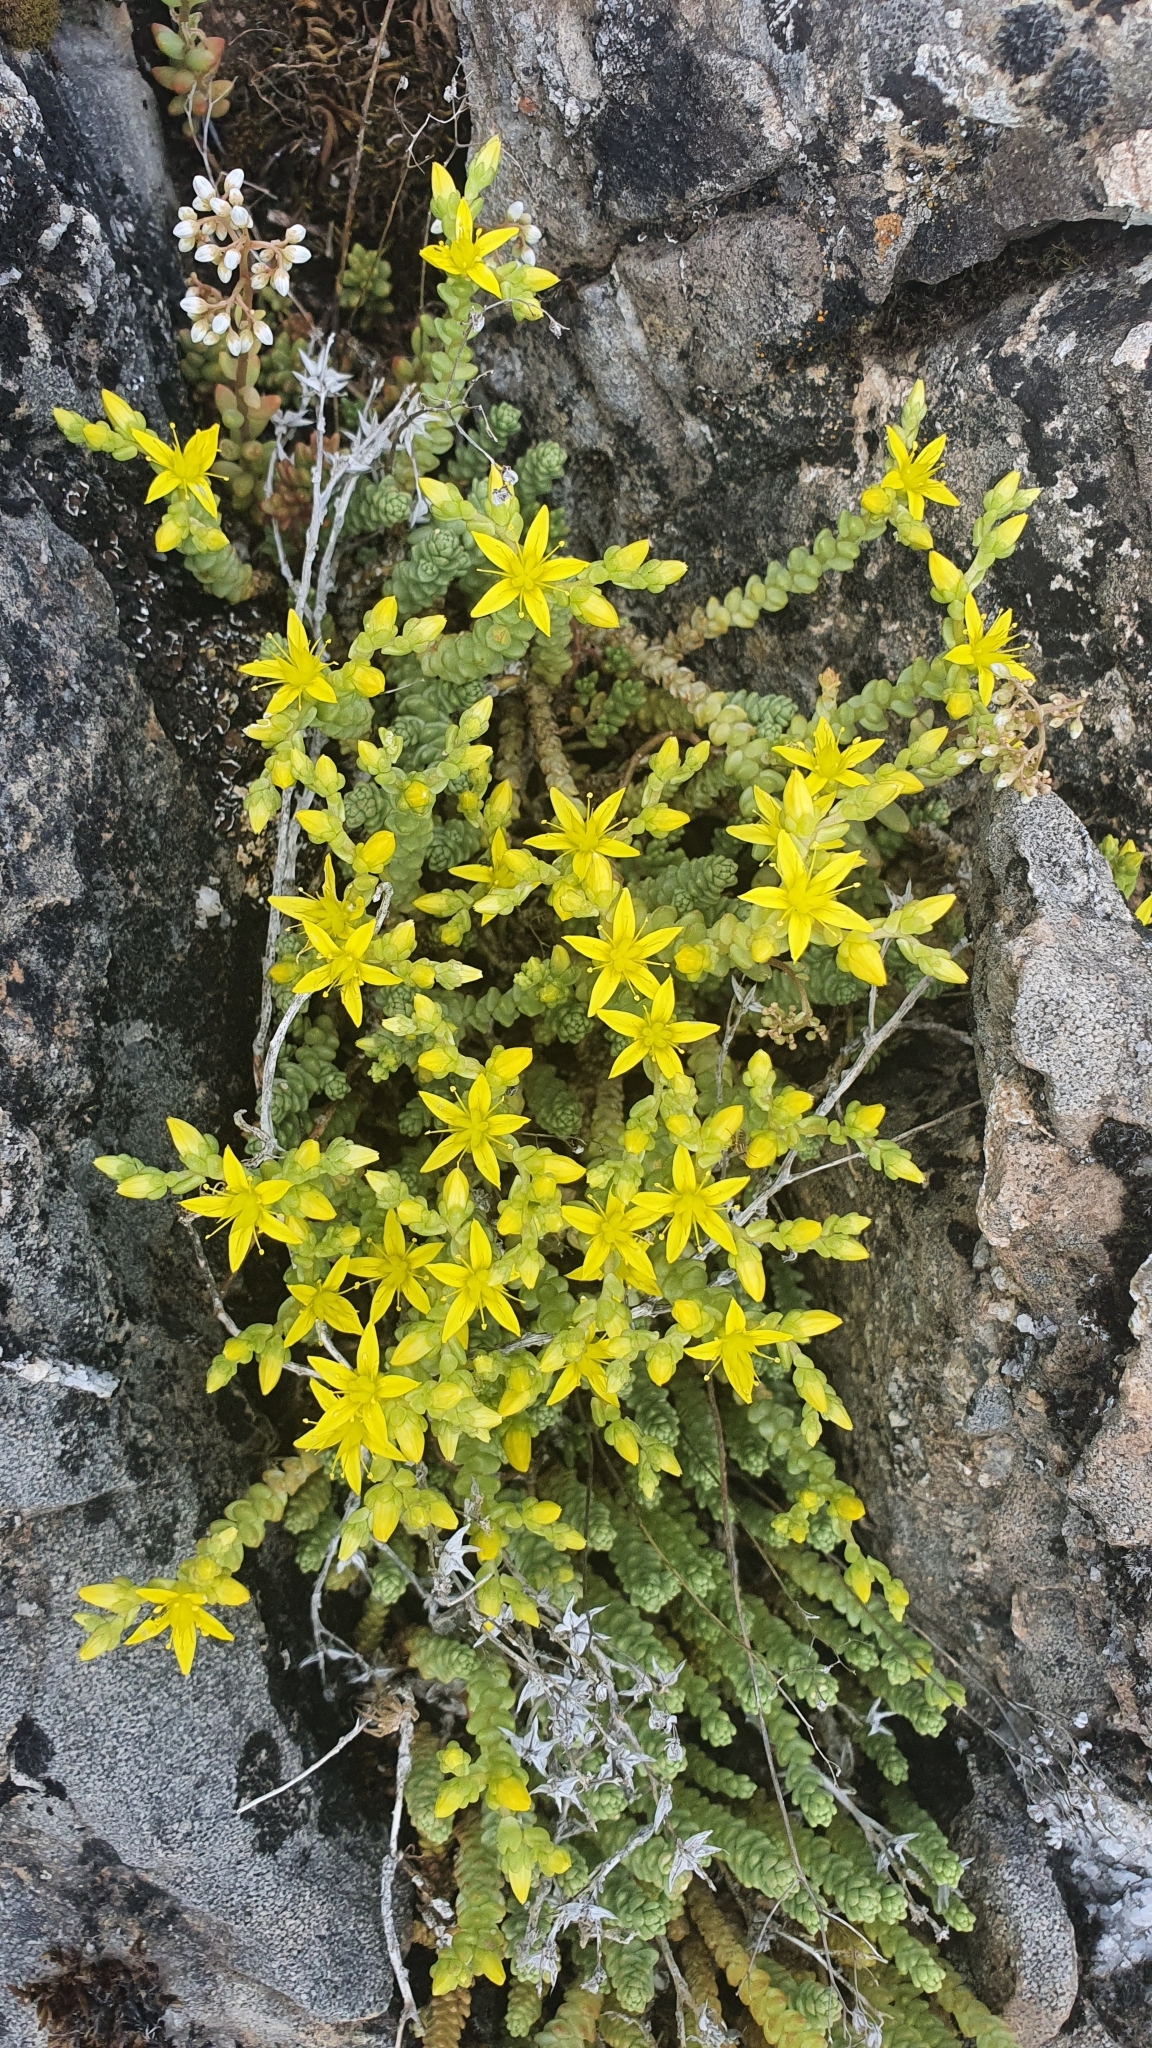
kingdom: Plantae
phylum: Tracheophyta
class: Magnoliopsida
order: Saxifragales
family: Crassulaceae
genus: Sedum
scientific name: Sedum acre
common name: Biting stonecrop
